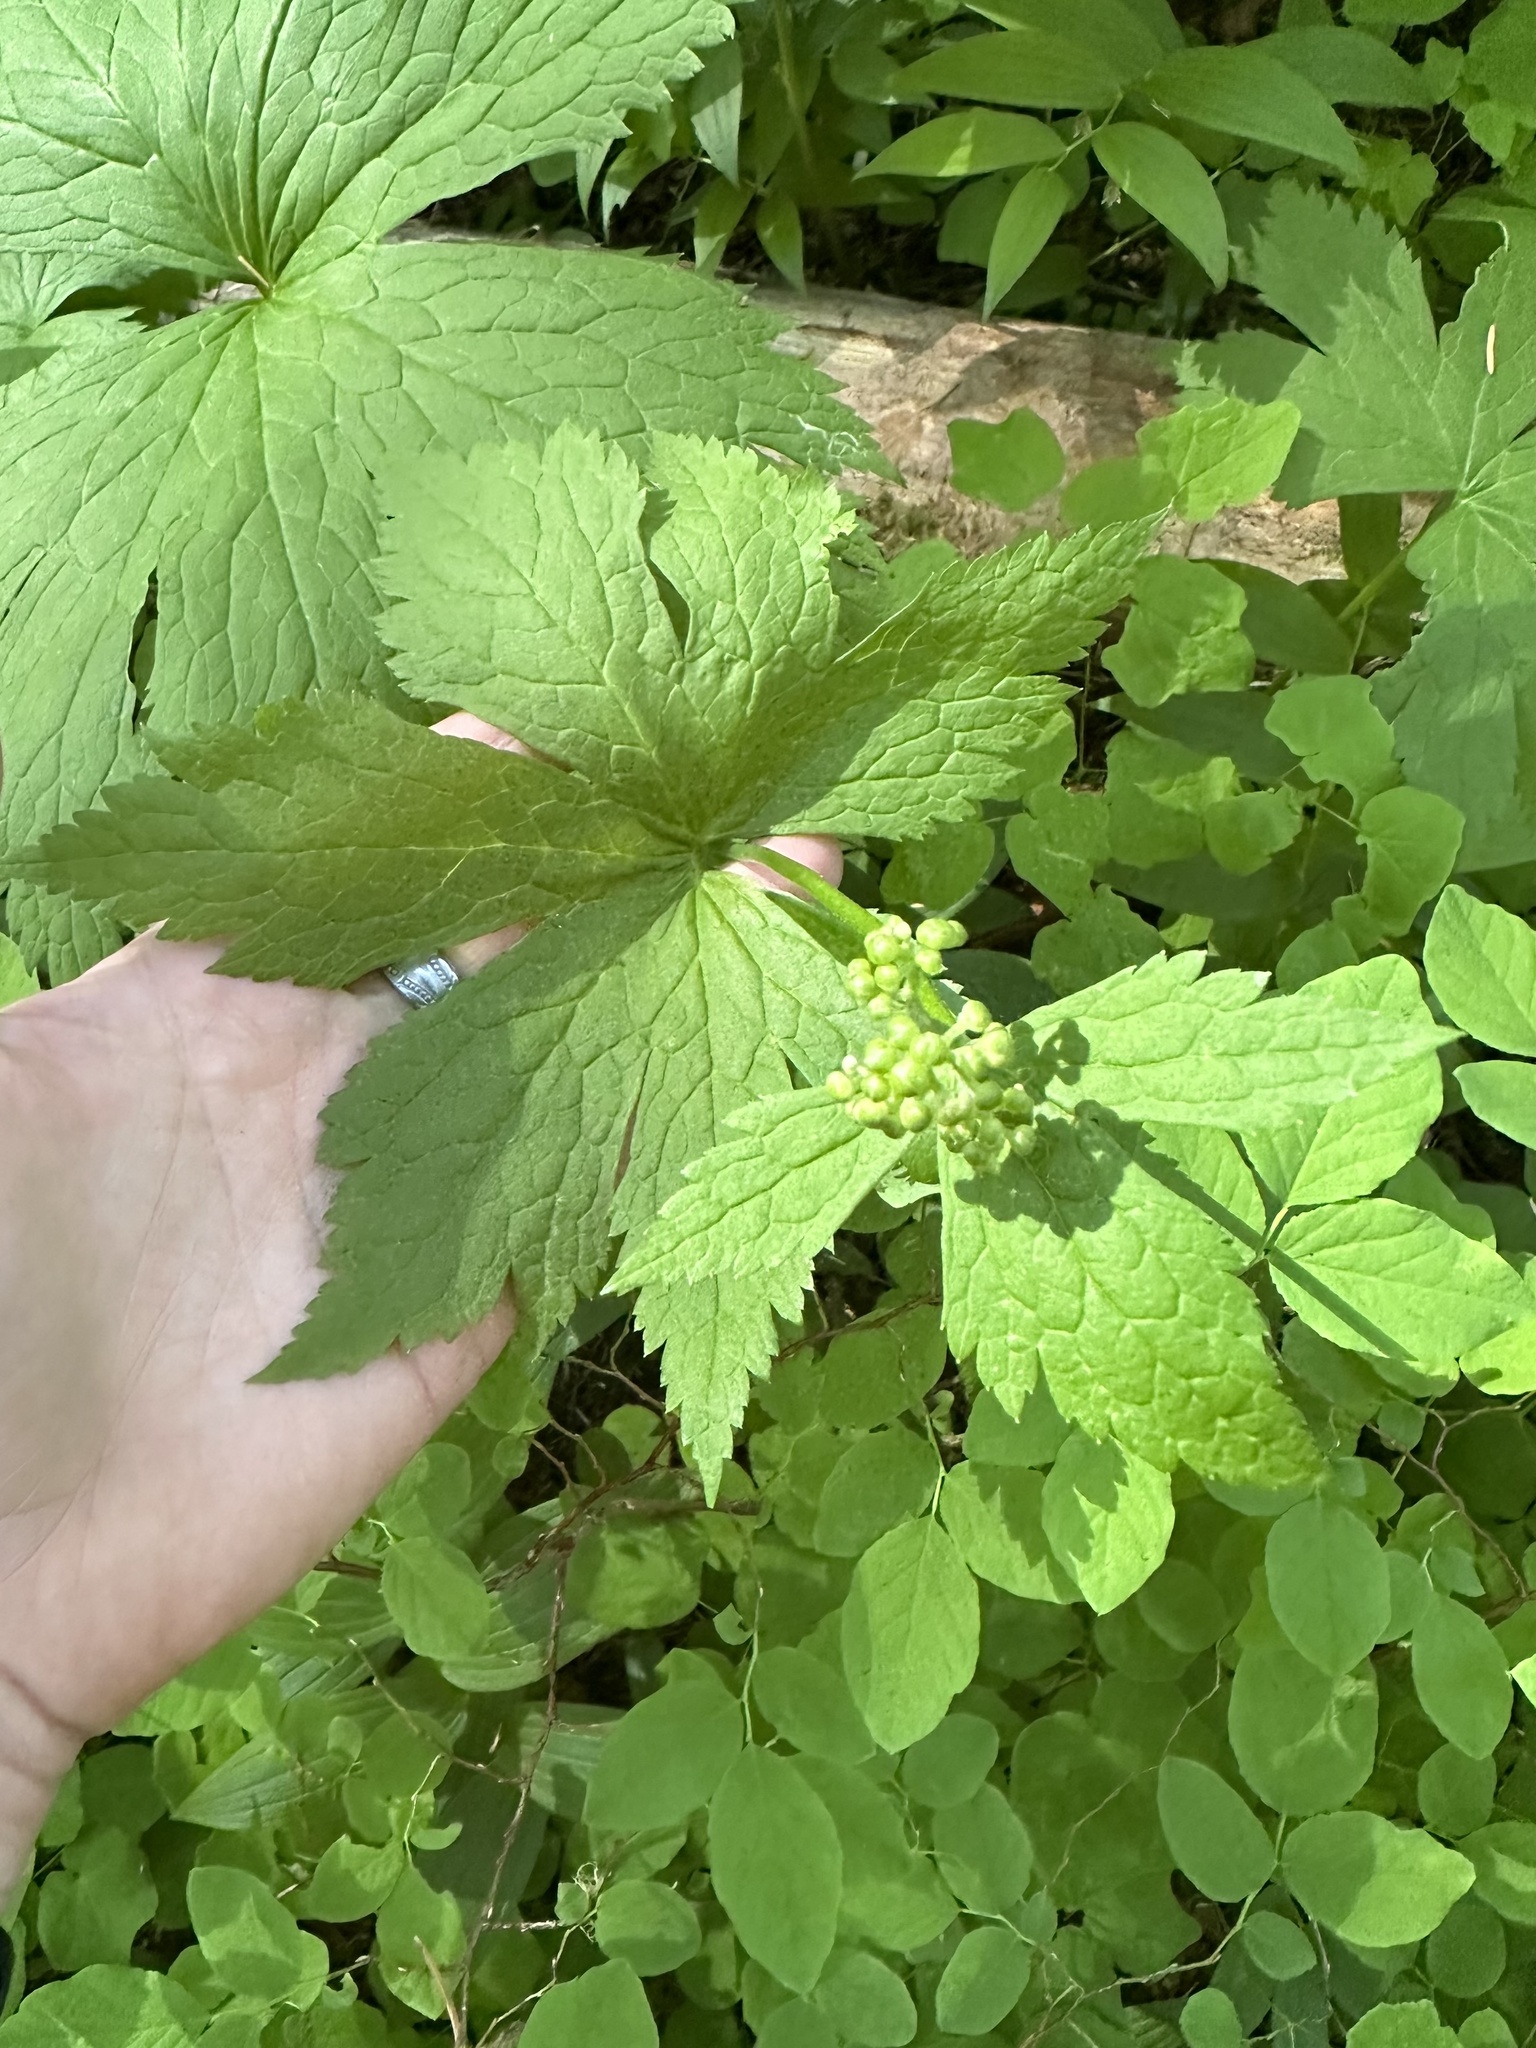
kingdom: Plantae
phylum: Tracheophyta
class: Magnoliopsida
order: Ranunculales
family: Ranunculaceae
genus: Trautvetteria
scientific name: Trautvetteria carolinensis
